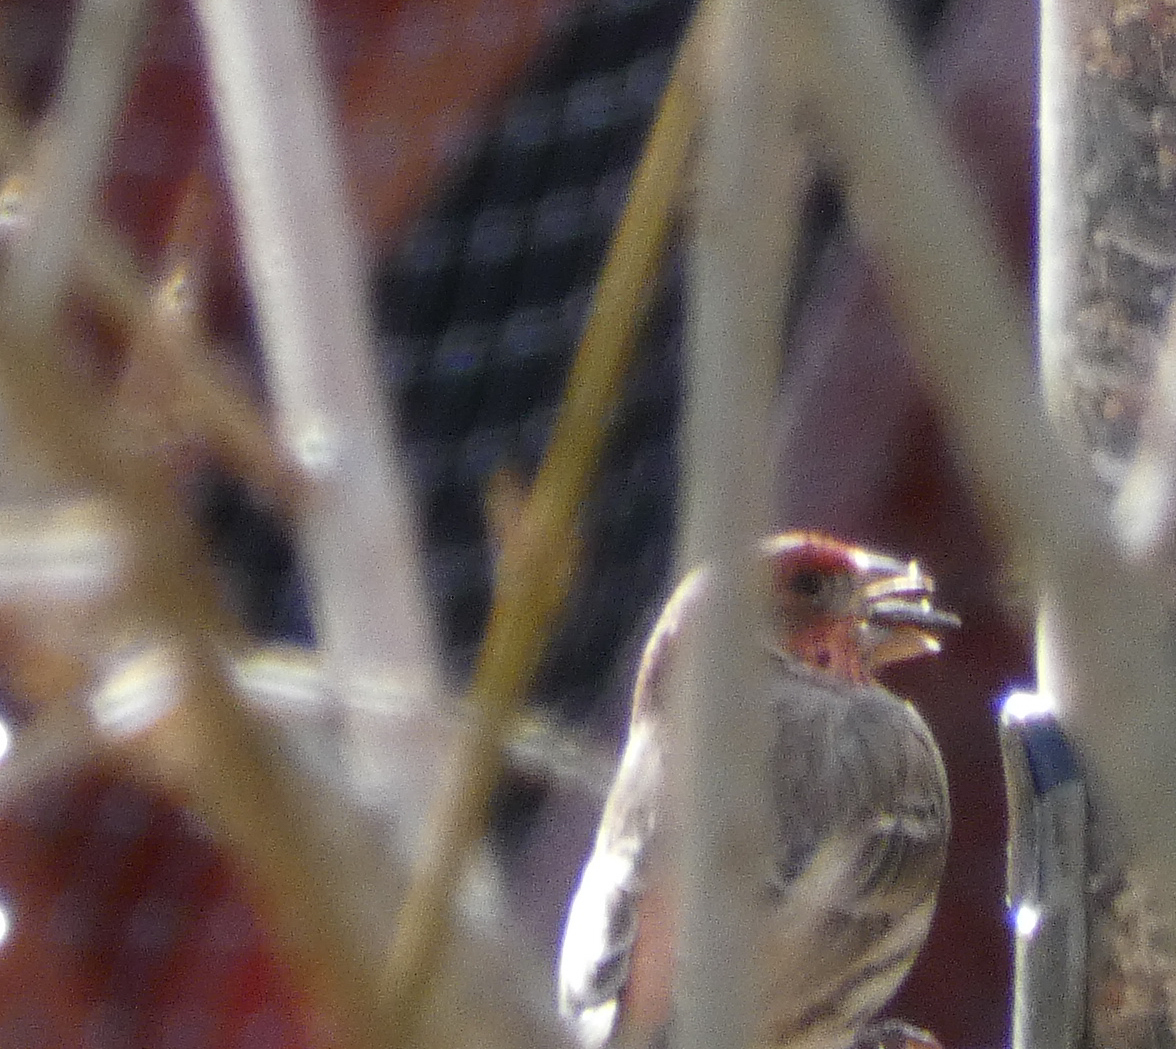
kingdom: Animalia
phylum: Chordata
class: Aves
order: Passeriformes
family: Fringillidae
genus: Haemorhous
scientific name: Haemorhous mexicanus
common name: House finch
